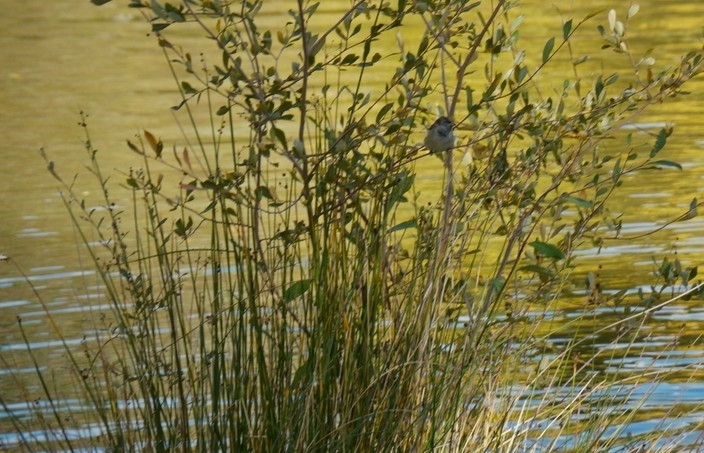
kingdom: Plantae
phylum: Tracheophyta
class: Liliopsida
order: Poales
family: Cyperaceae
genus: Scirpoides
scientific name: Scirpoides holoschoenus
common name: Round-headed club-rush
